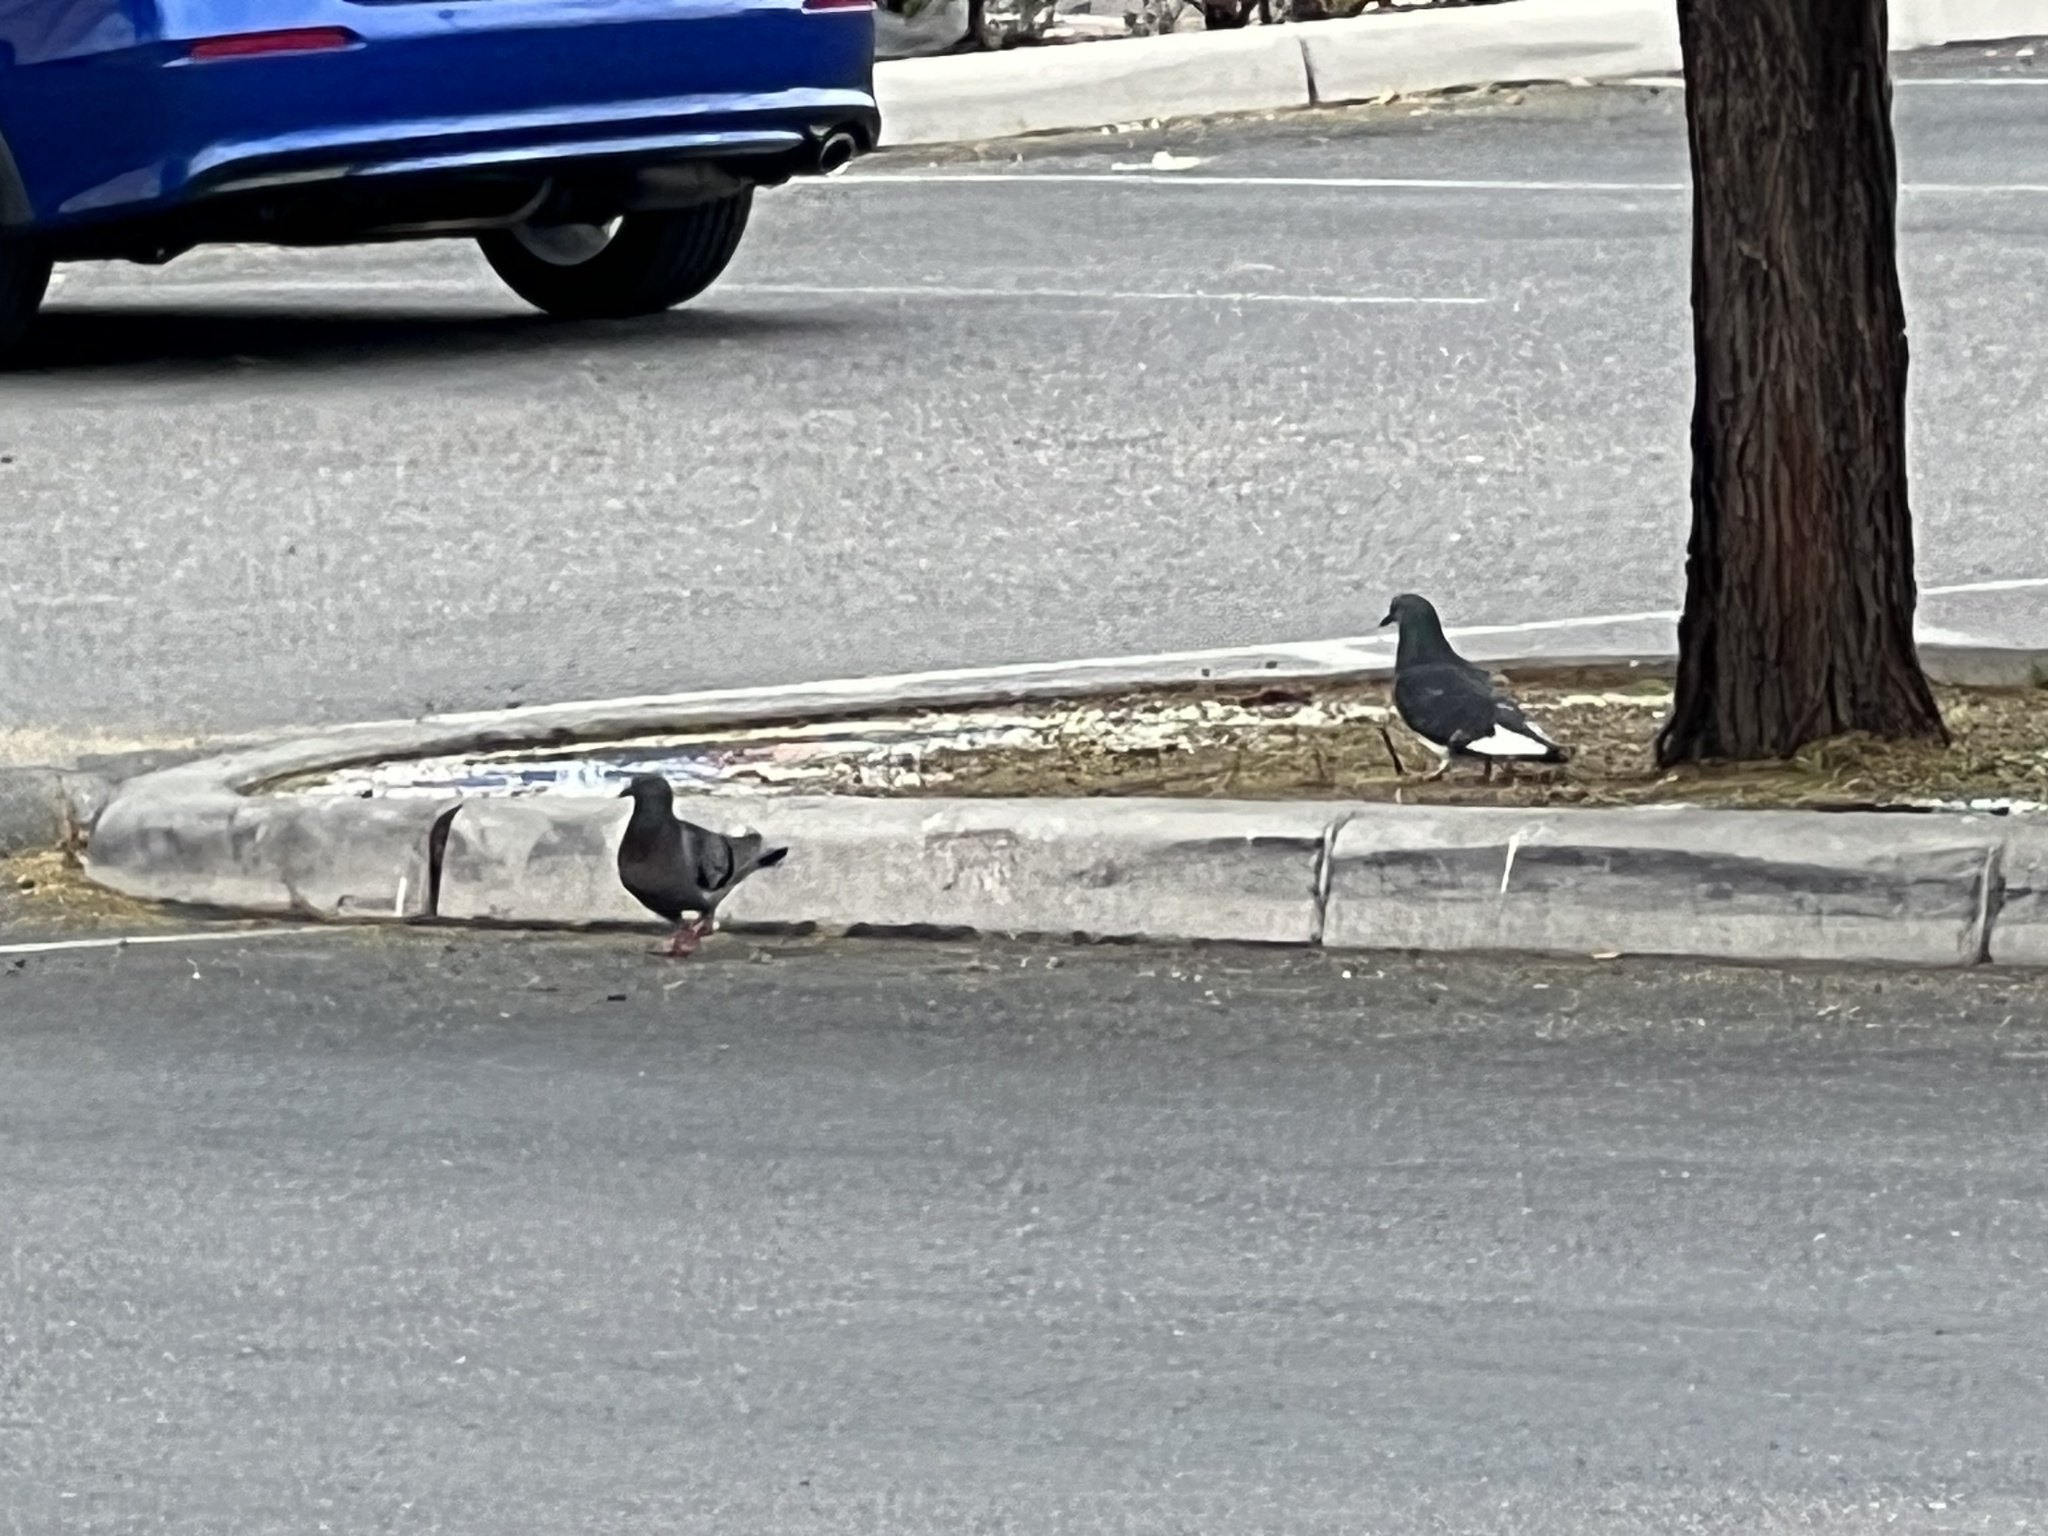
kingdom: Animalia
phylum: Chordata
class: Aves
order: Columbiformes
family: Columbidae
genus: Columba
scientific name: Columba livia
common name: Rock pigeon
